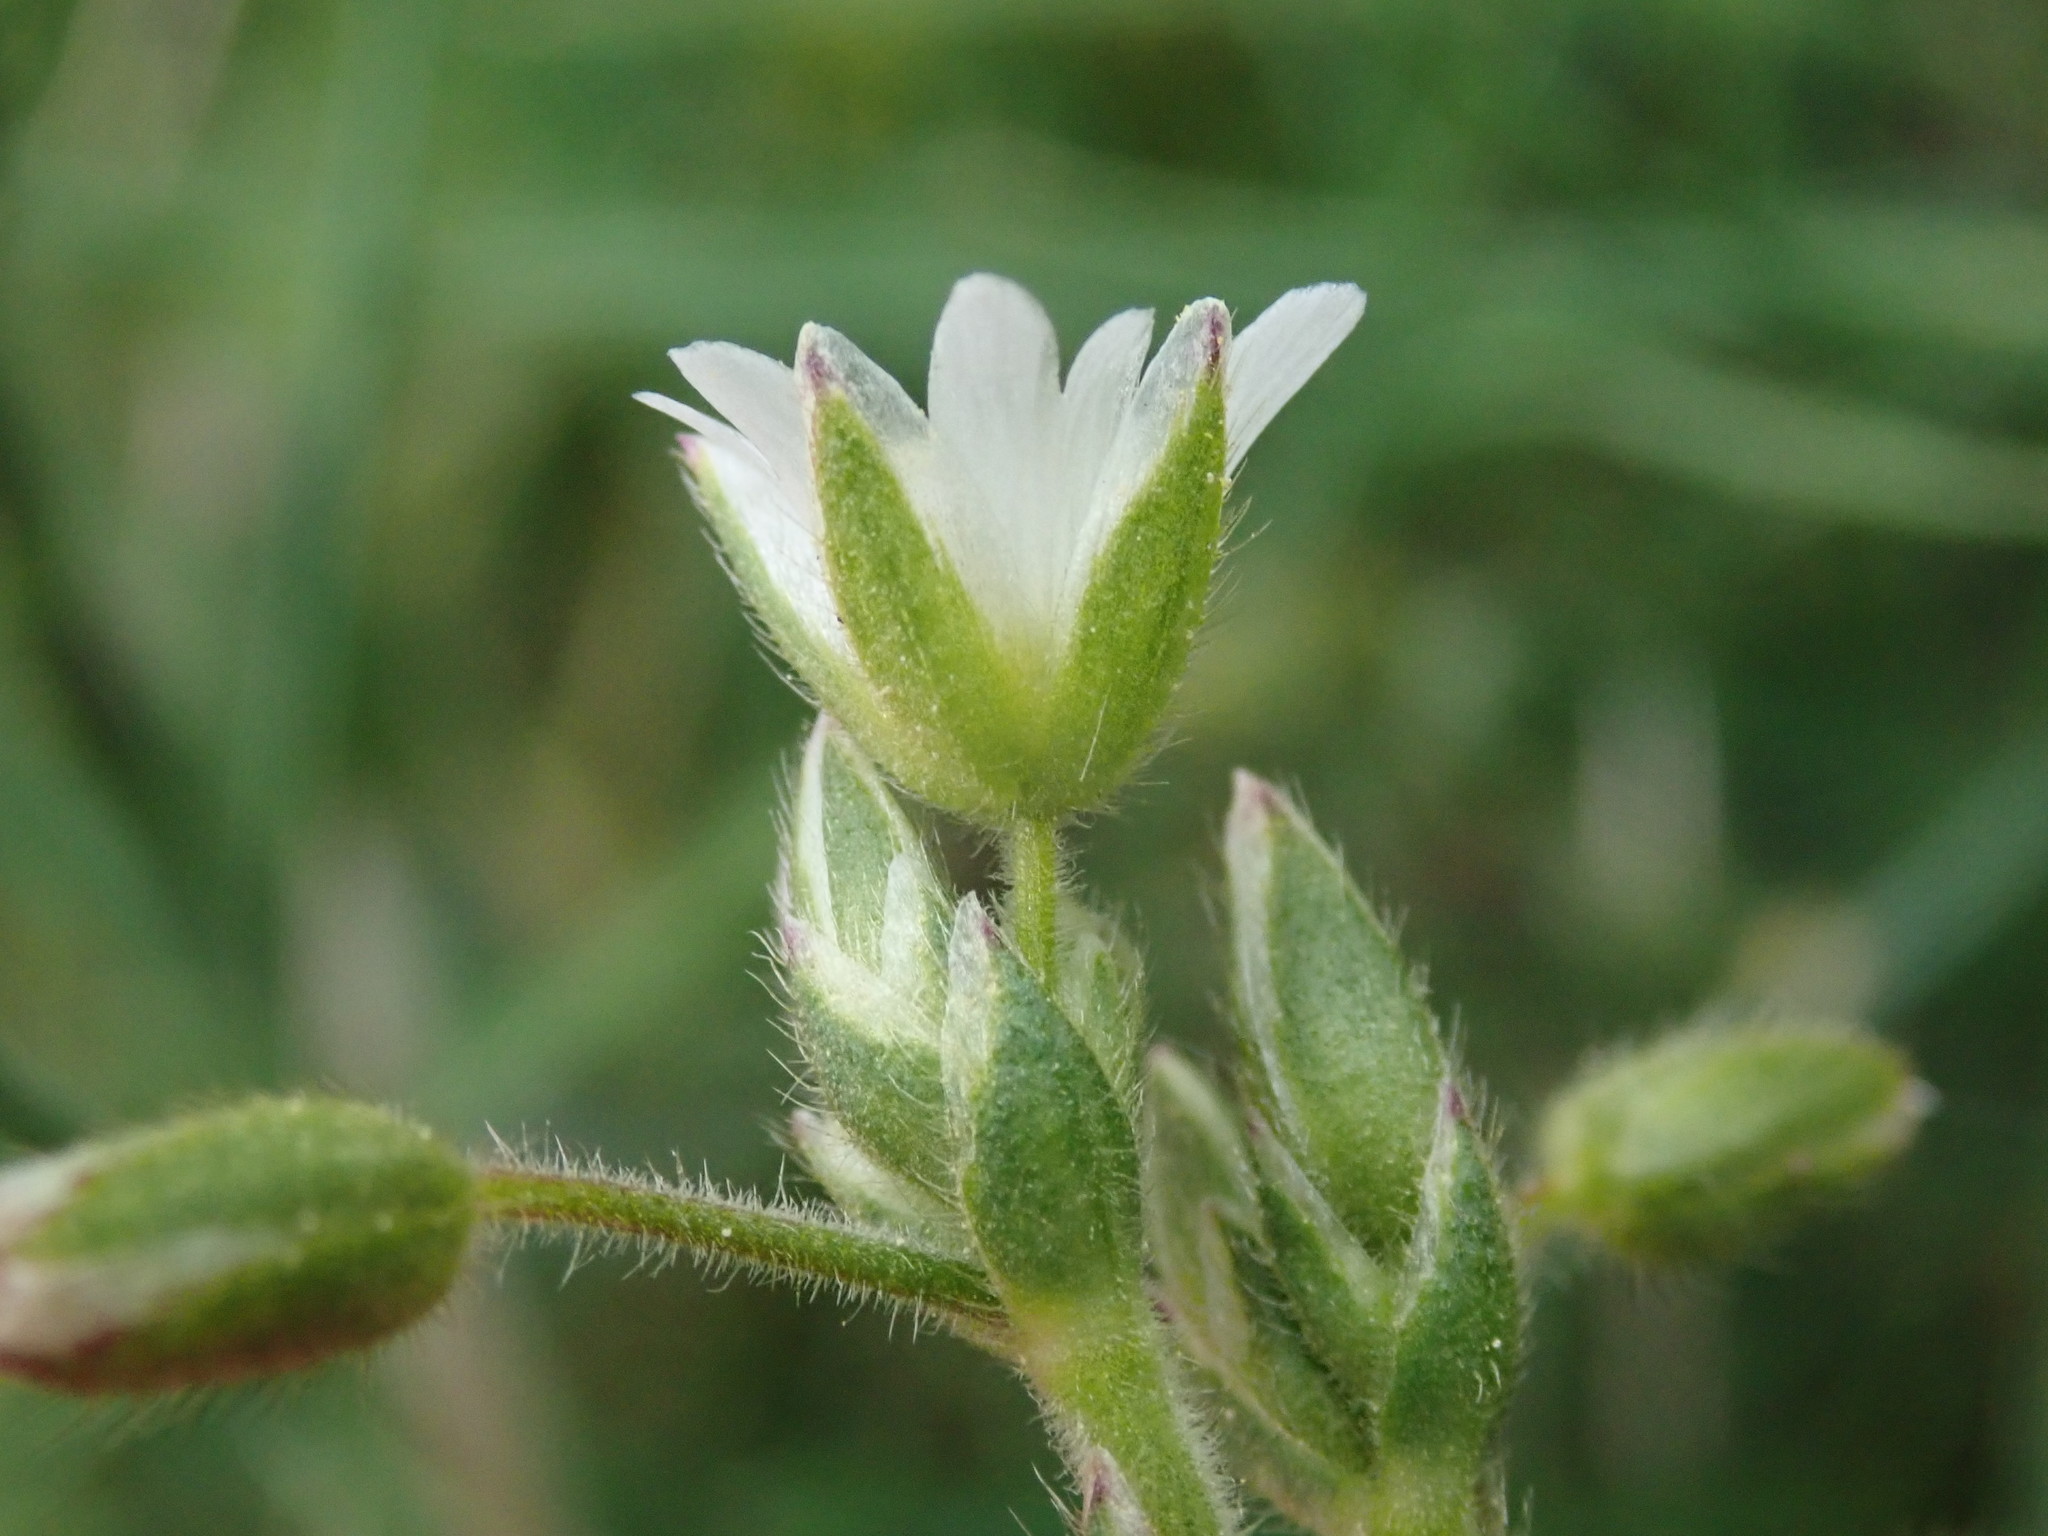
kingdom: Plantae
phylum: Tracheophyta
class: Magnoliopsida
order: Caryophyllales
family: Caryophyllaceae
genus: Cerastium
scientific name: Cerastium holosteoides
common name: Big chickweed
